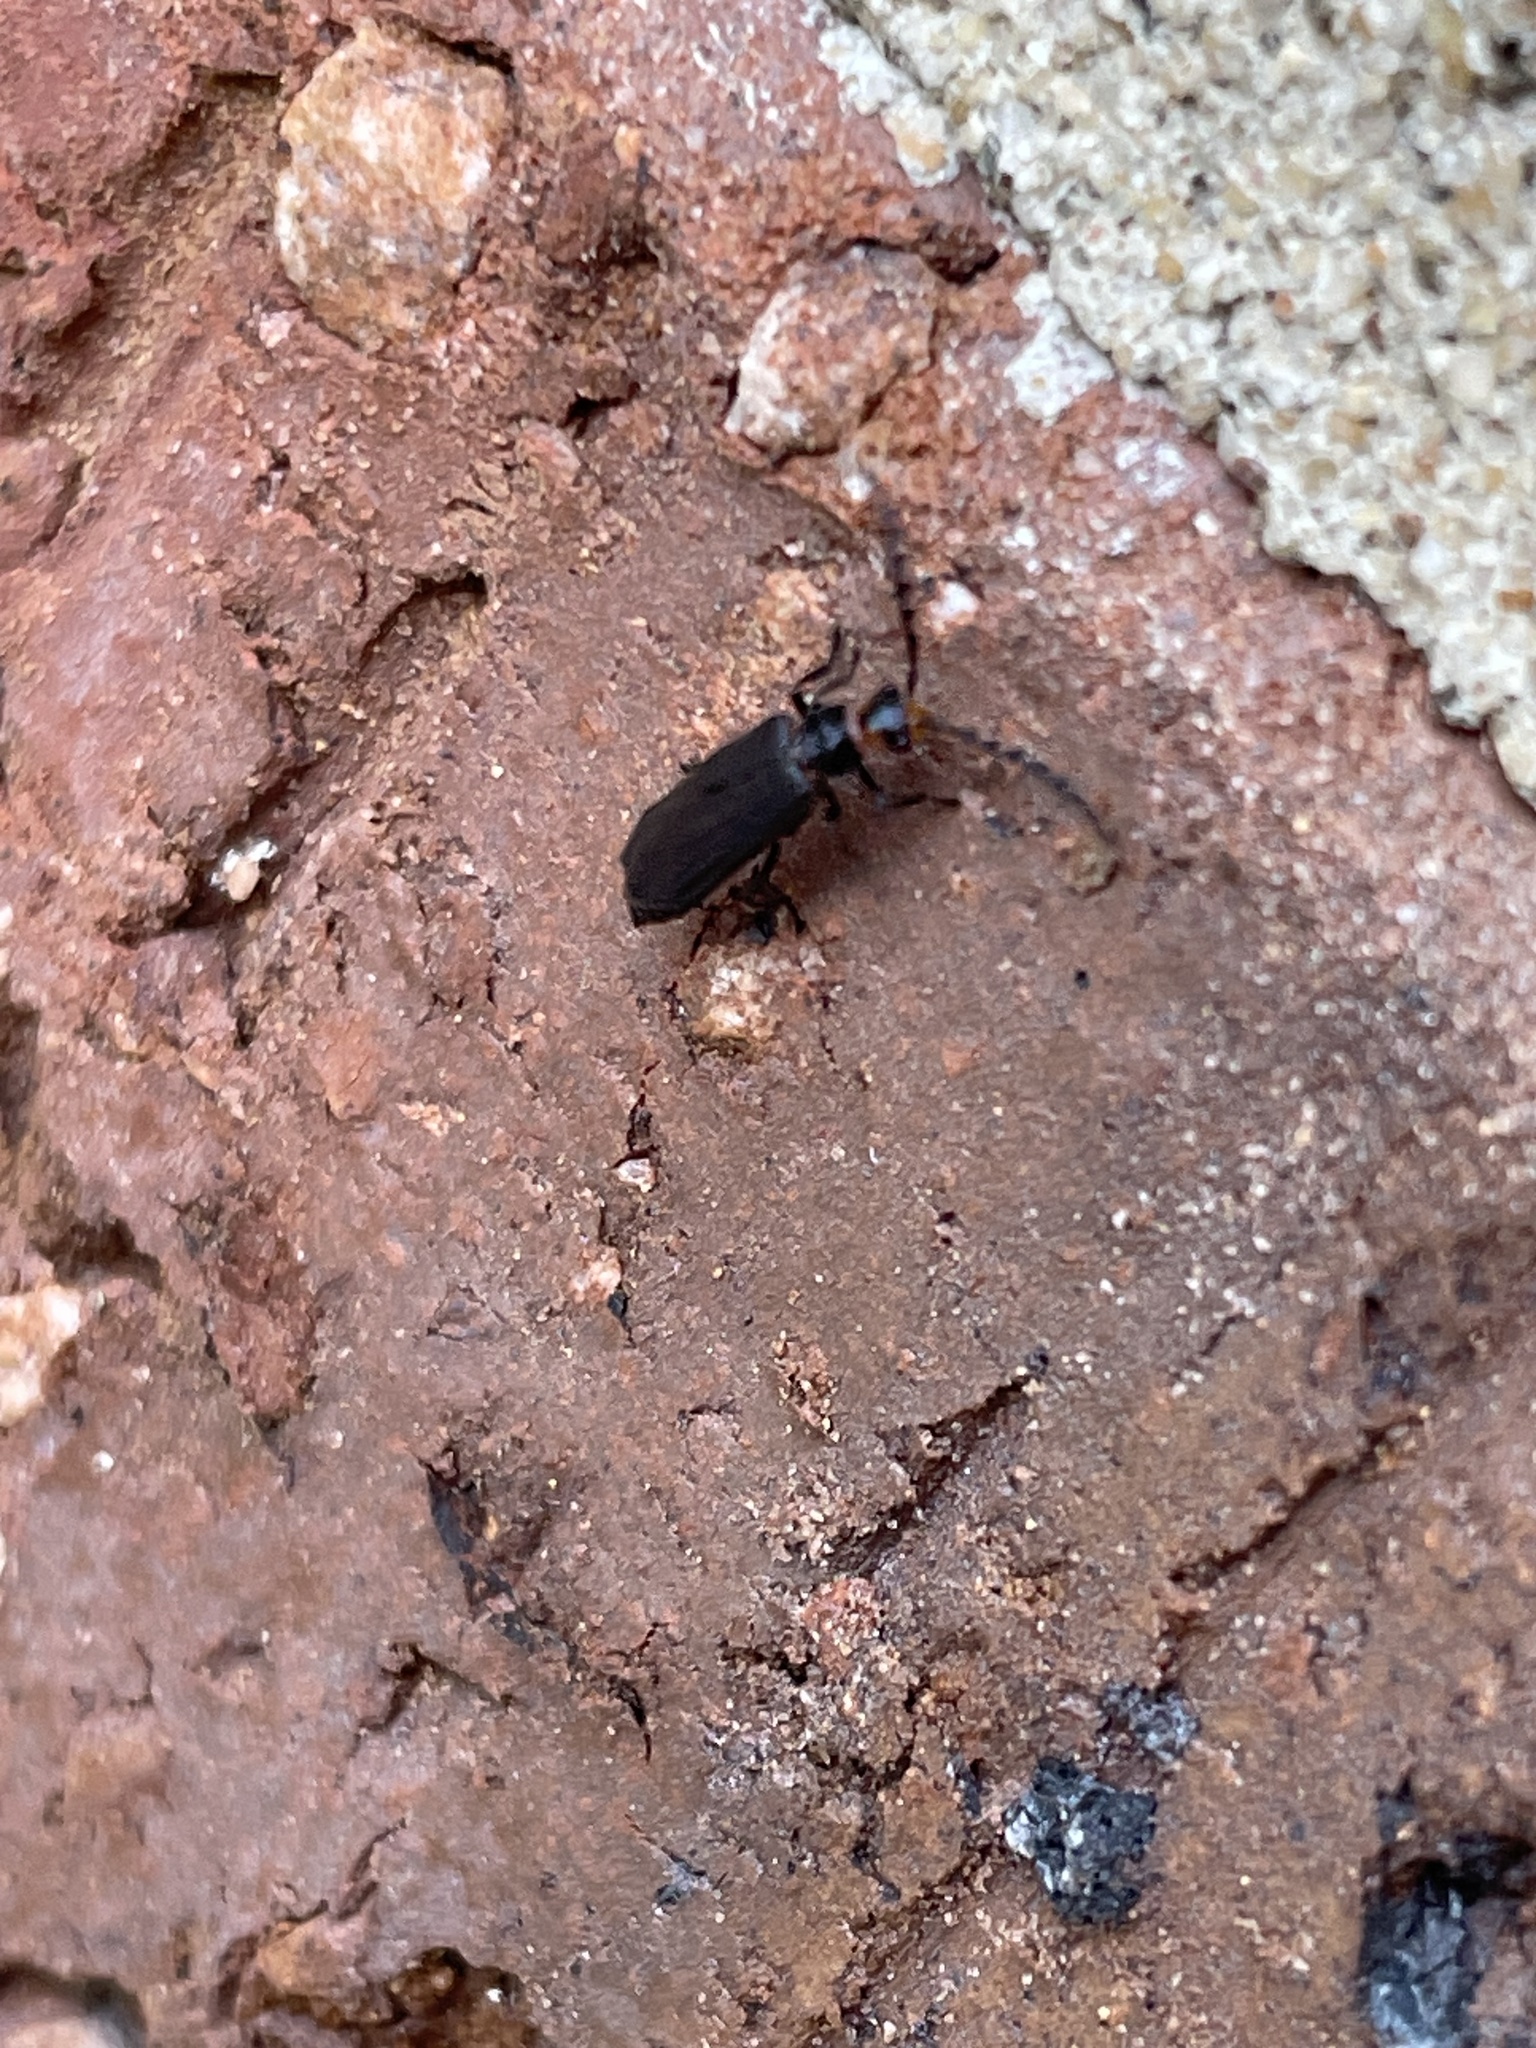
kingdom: Animalia
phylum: Arthropoda
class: Insecta
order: Coleoptera
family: Cantharidae
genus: Tytthonyx
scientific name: Tytthonyx erythrocephalus
